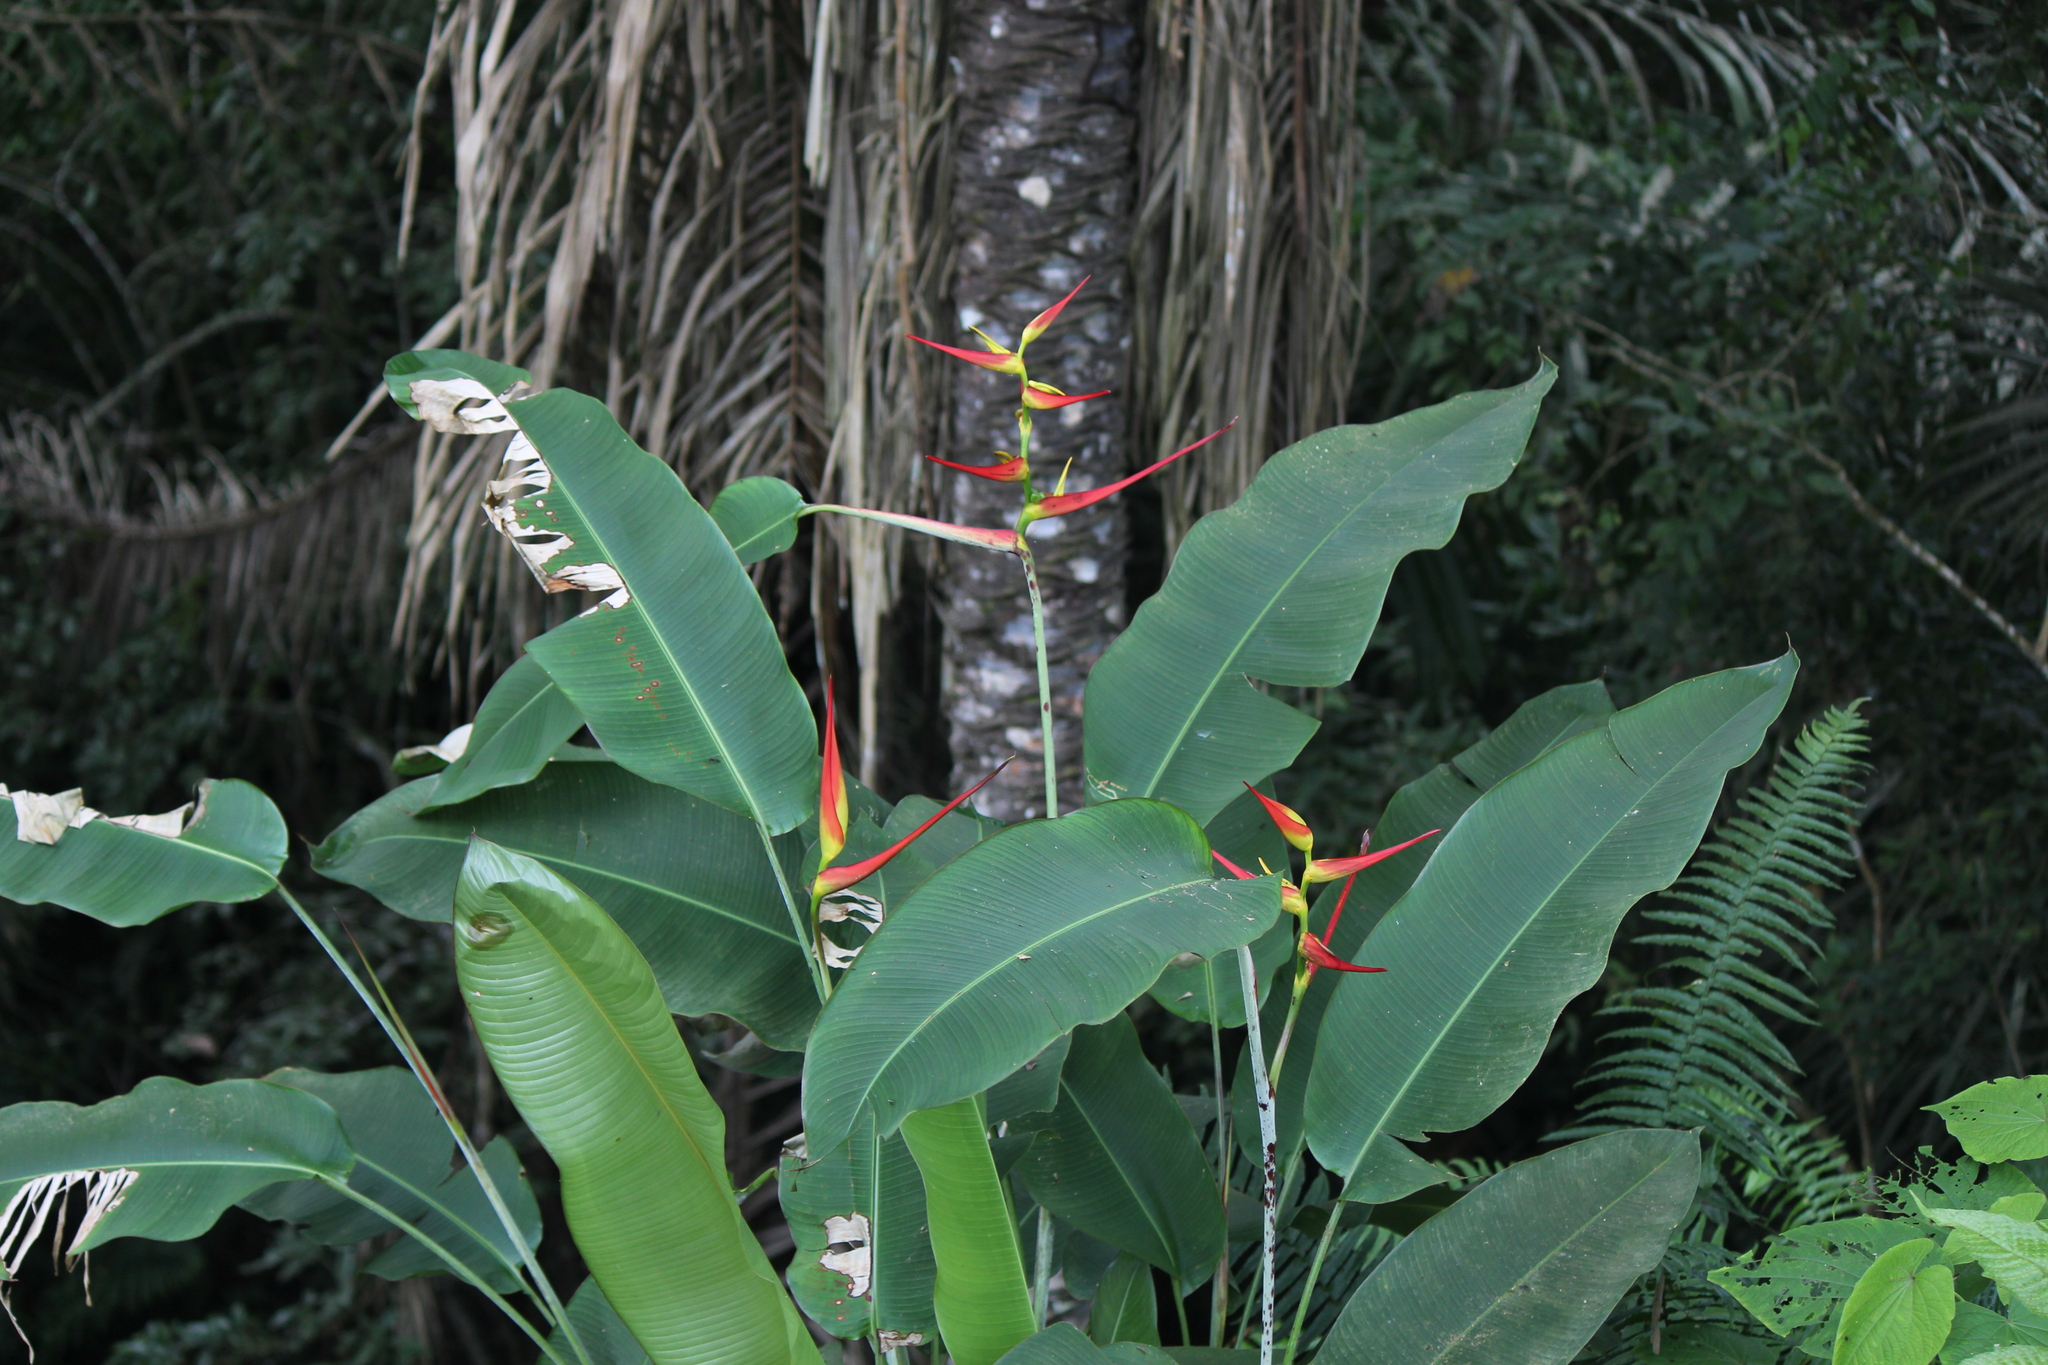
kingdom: Plantae
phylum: Tracheophyta
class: Liliopsida
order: Zingiberales
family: Heliconiaceae
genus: Heliconia
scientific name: Heliconia latispatha
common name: Expanded lobsterclaw
